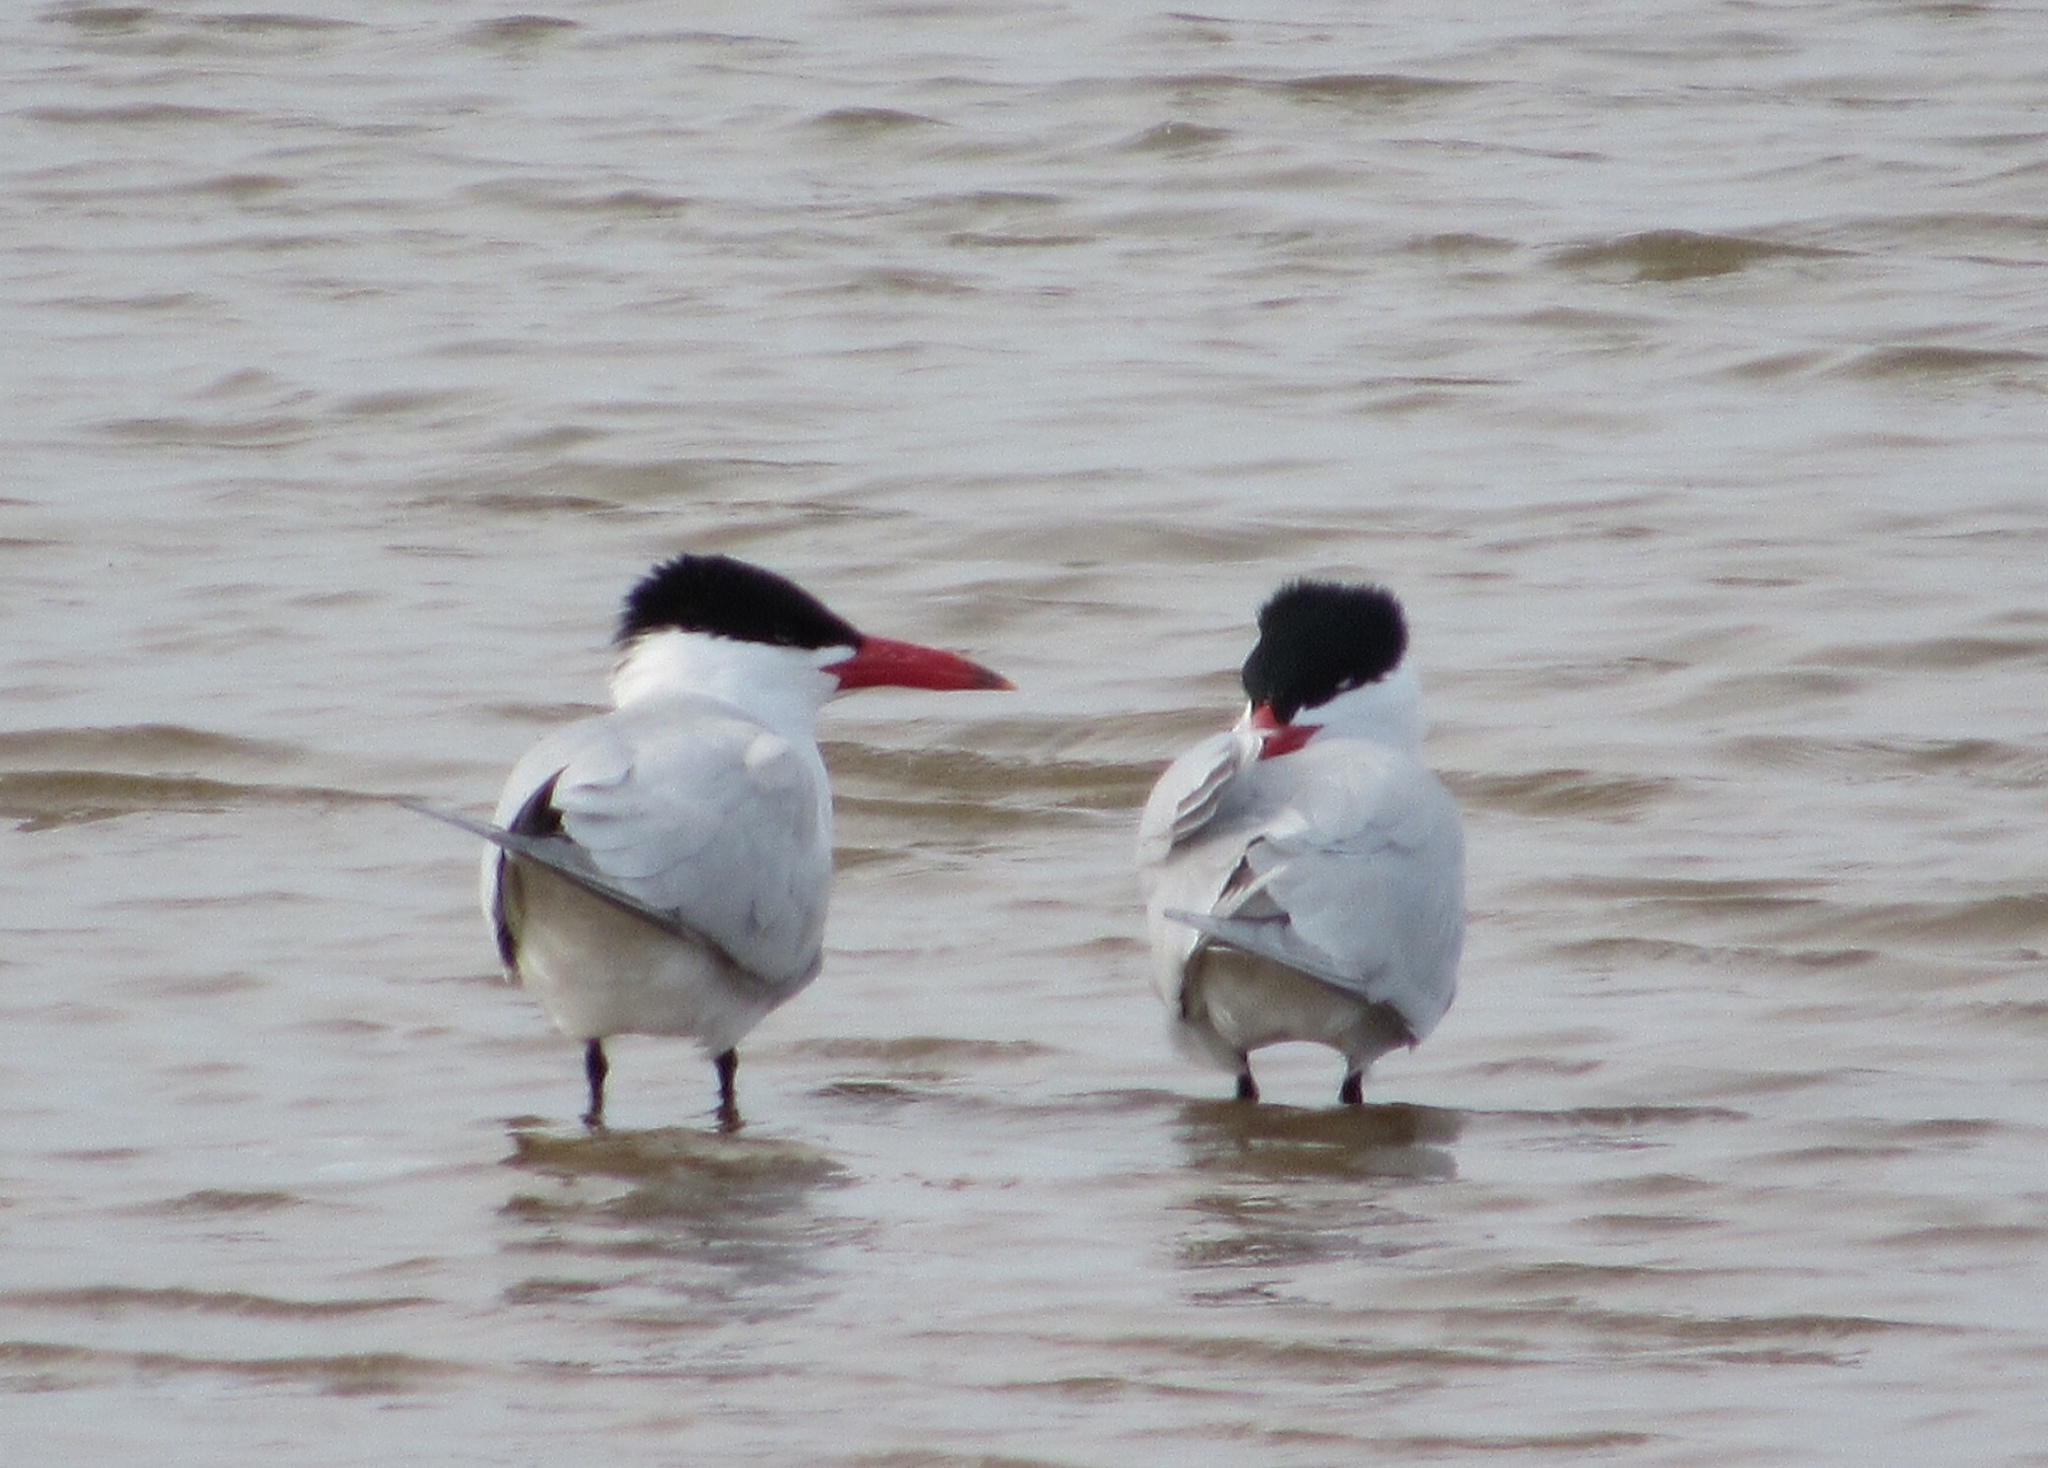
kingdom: Animalia
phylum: Chordata
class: Aves
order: Charadriiformes
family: Laridae
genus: Hydroprogne
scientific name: Hydroprogne caspia
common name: Caspian tern
